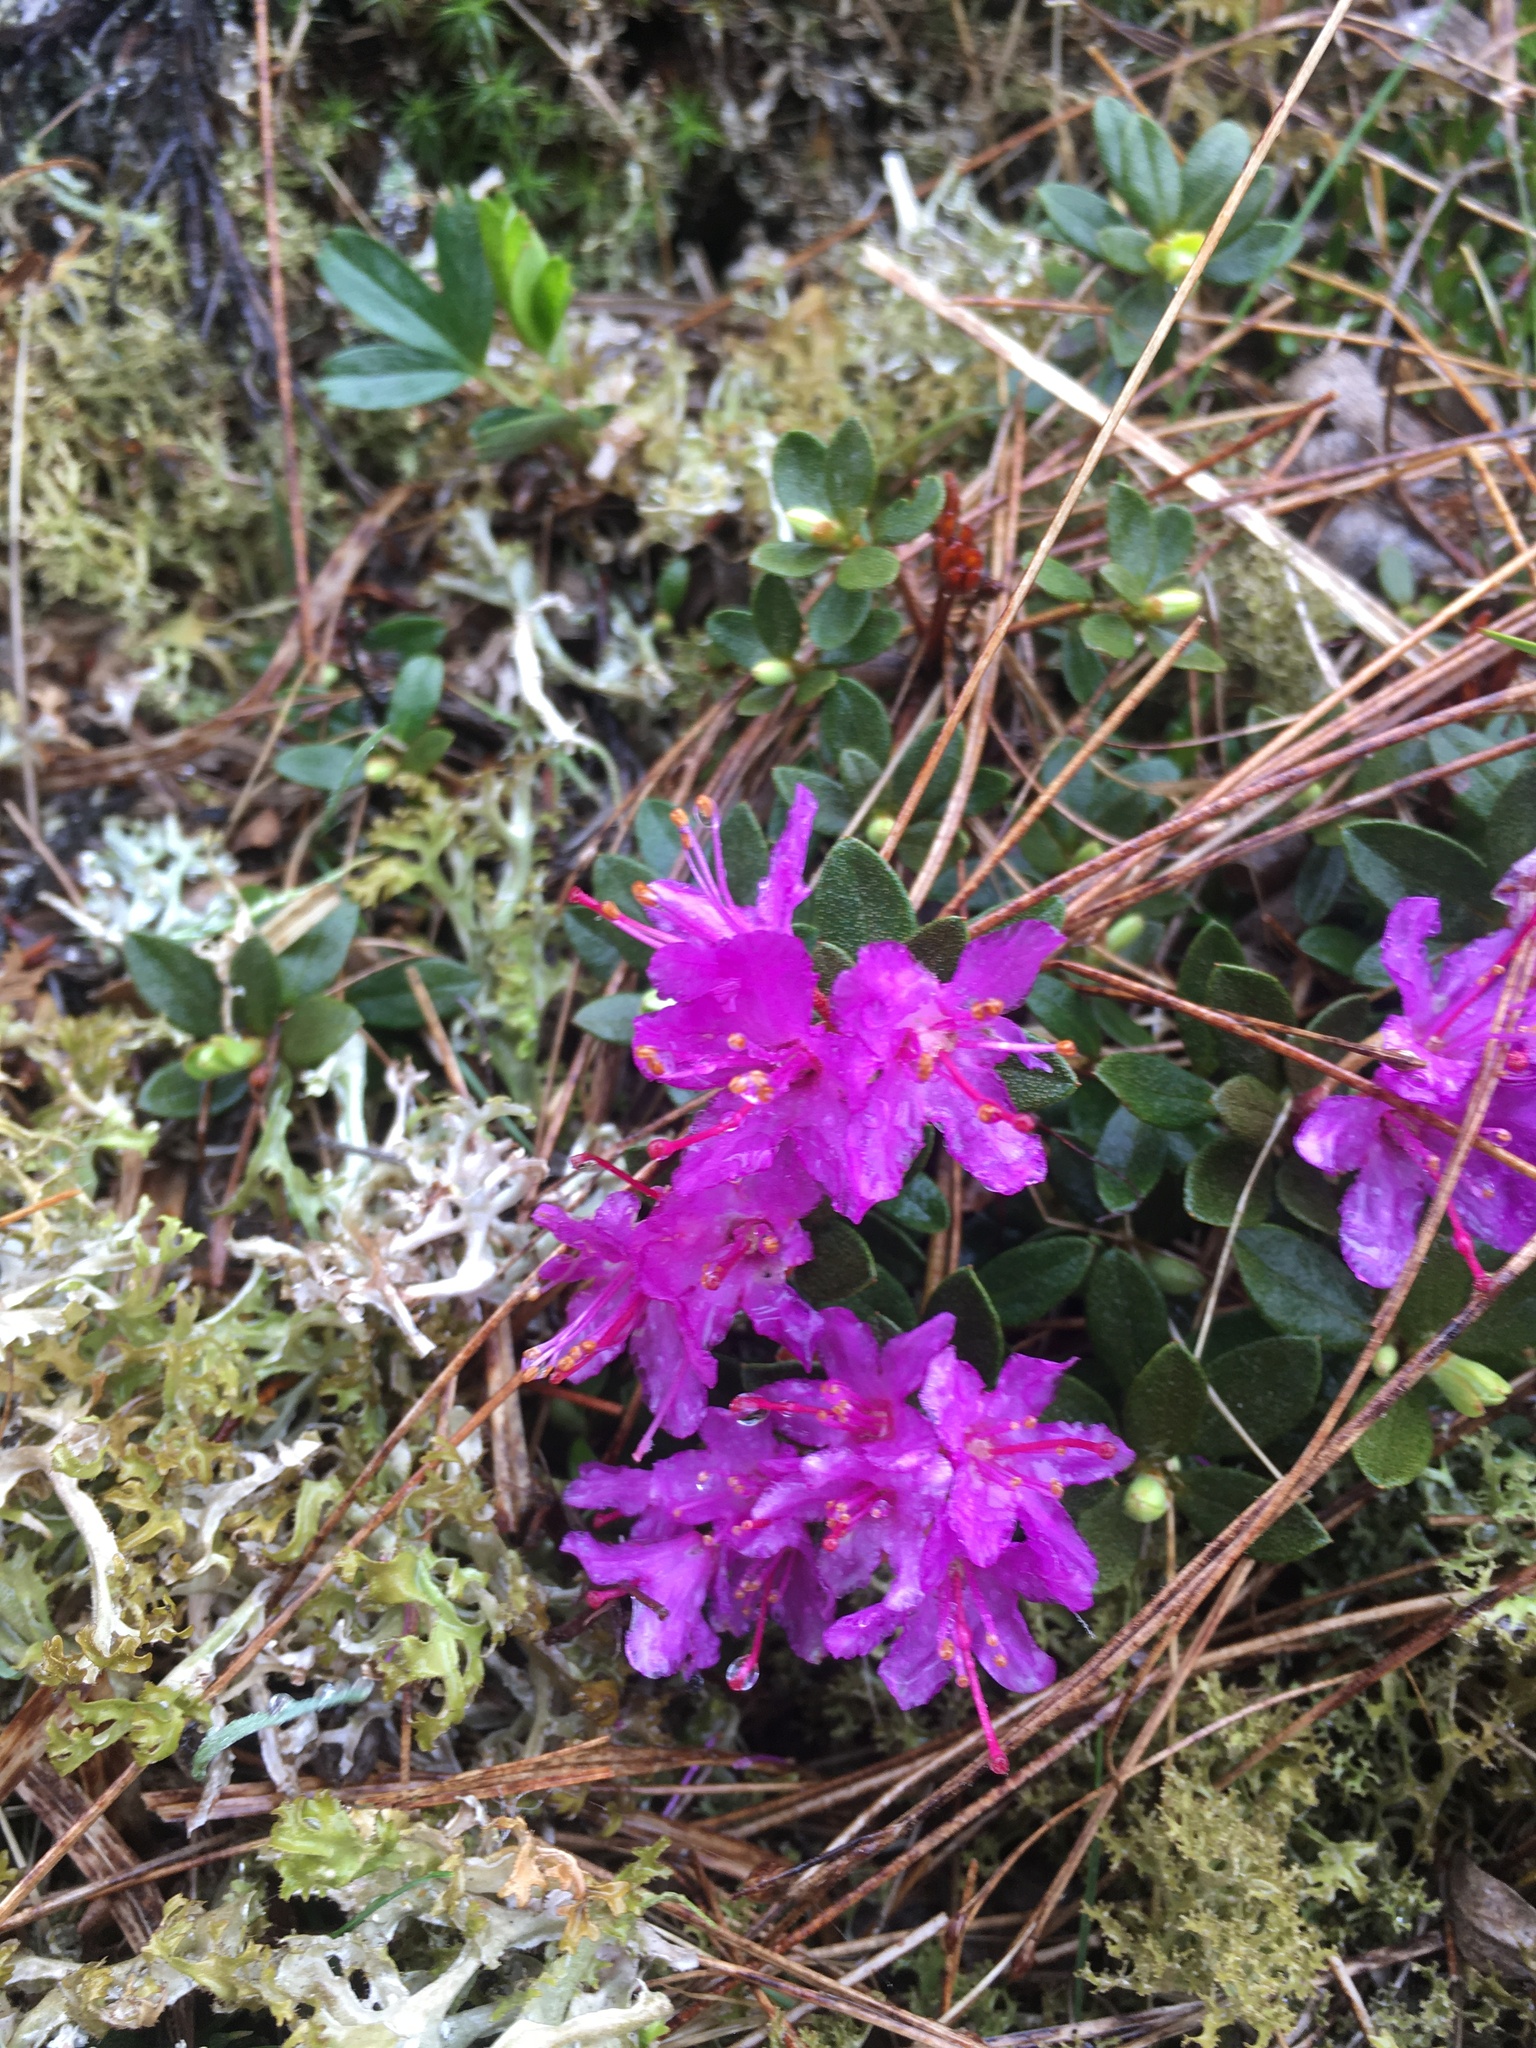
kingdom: Plantae
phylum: Tracheophyta
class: Magnoliopsida
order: Ericales
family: Ericaceae
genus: Rhododendron
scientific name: Rhododendron lapponicum
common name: Lapland rhododendron
